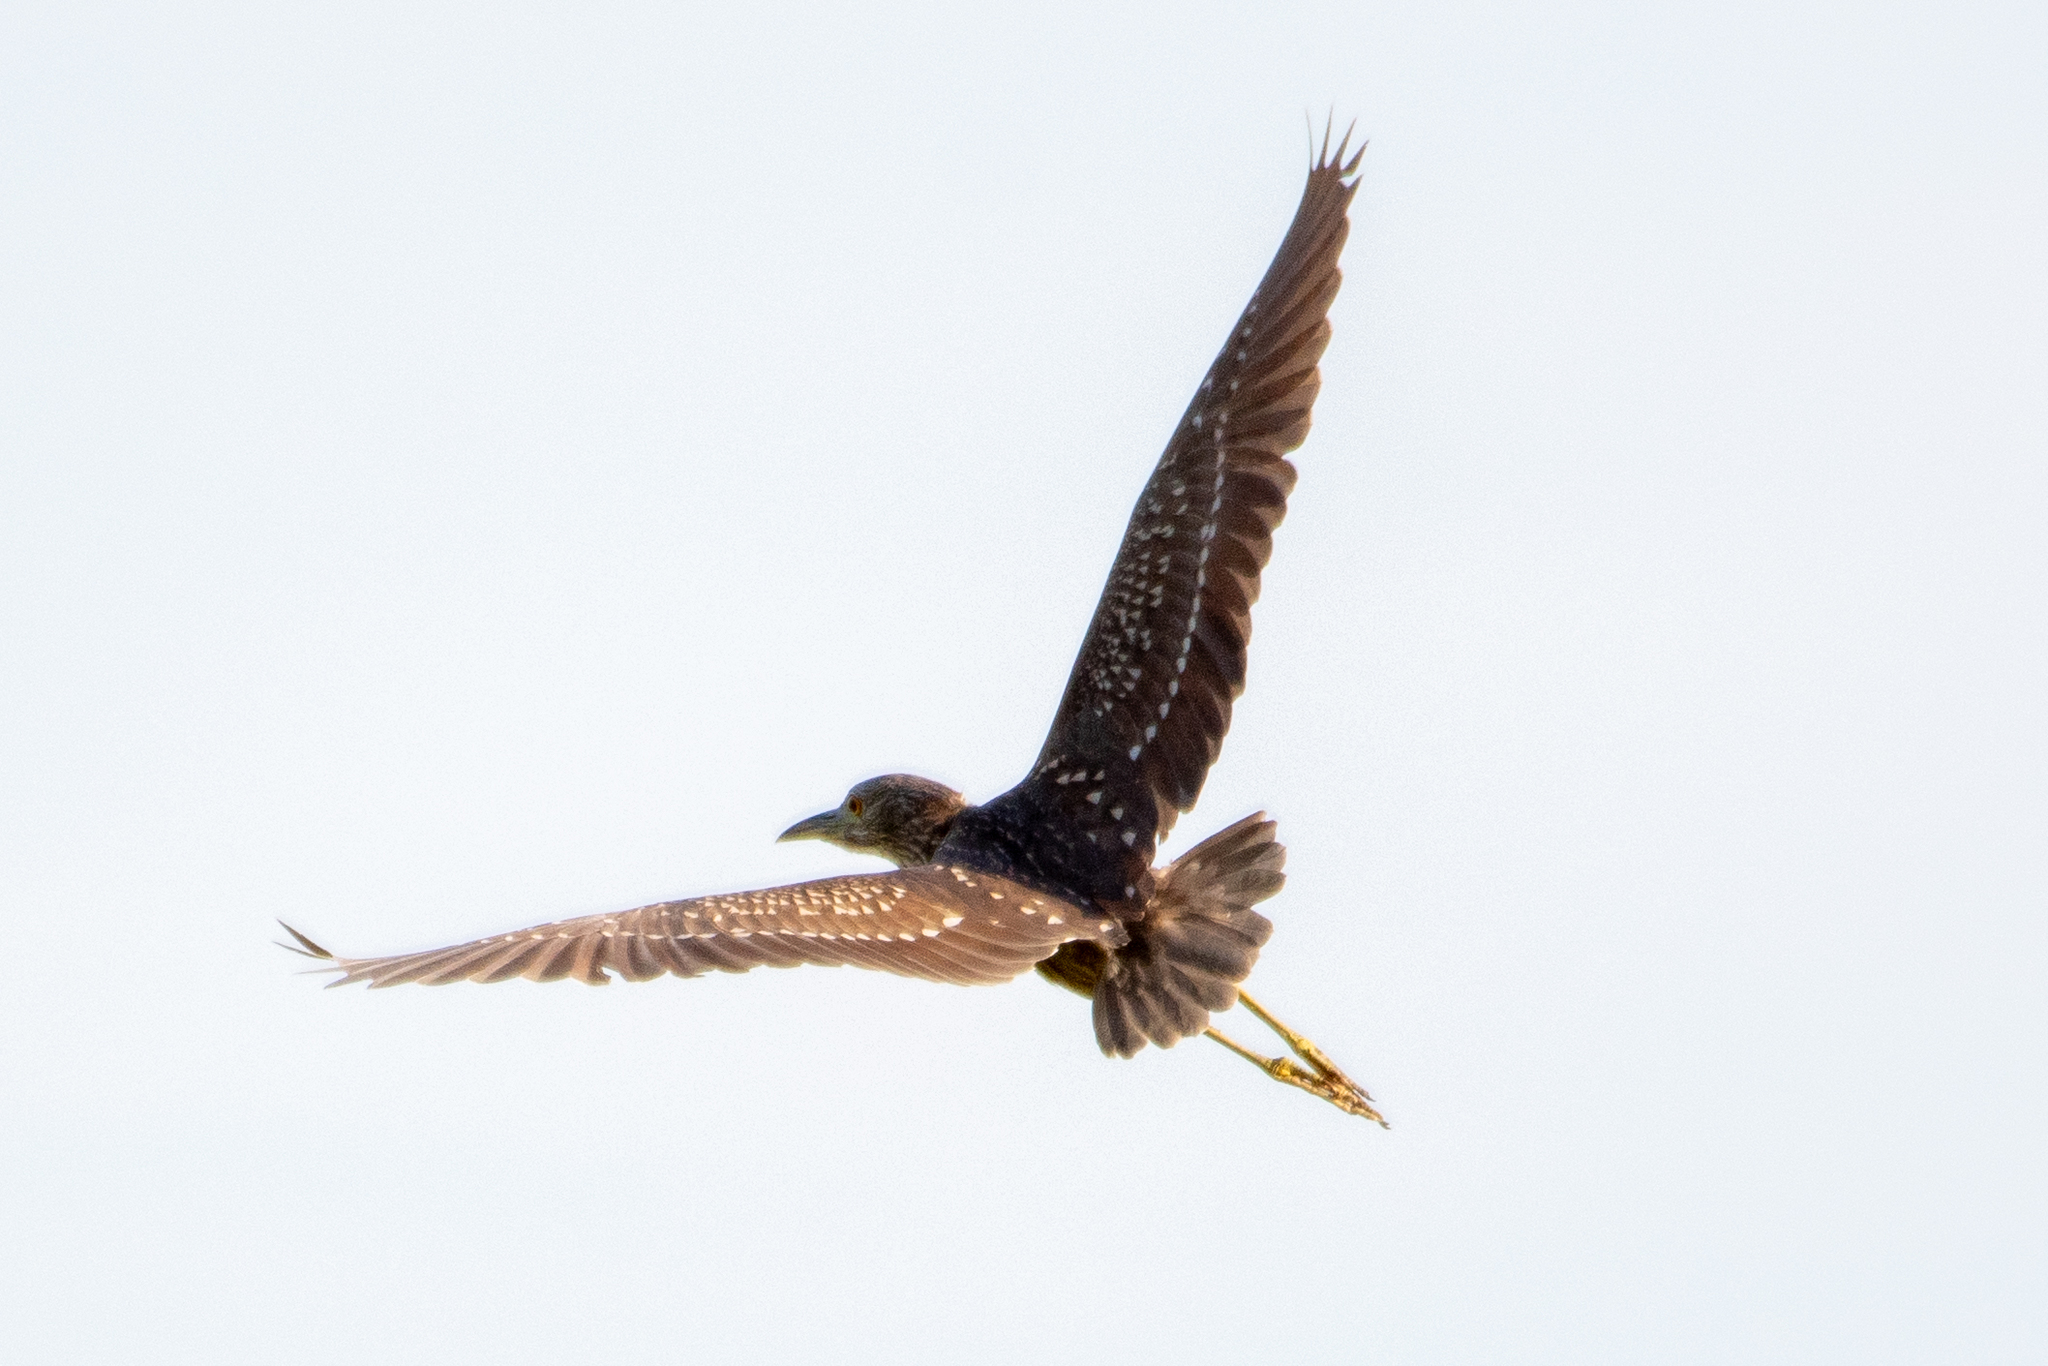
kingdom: Animalia
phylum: Chordata
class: Aves
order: Pelecaniformes
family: Ardeidae
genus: Nycticorax
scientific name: Nycticorax nycticorax
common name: Black-crowned night heron
